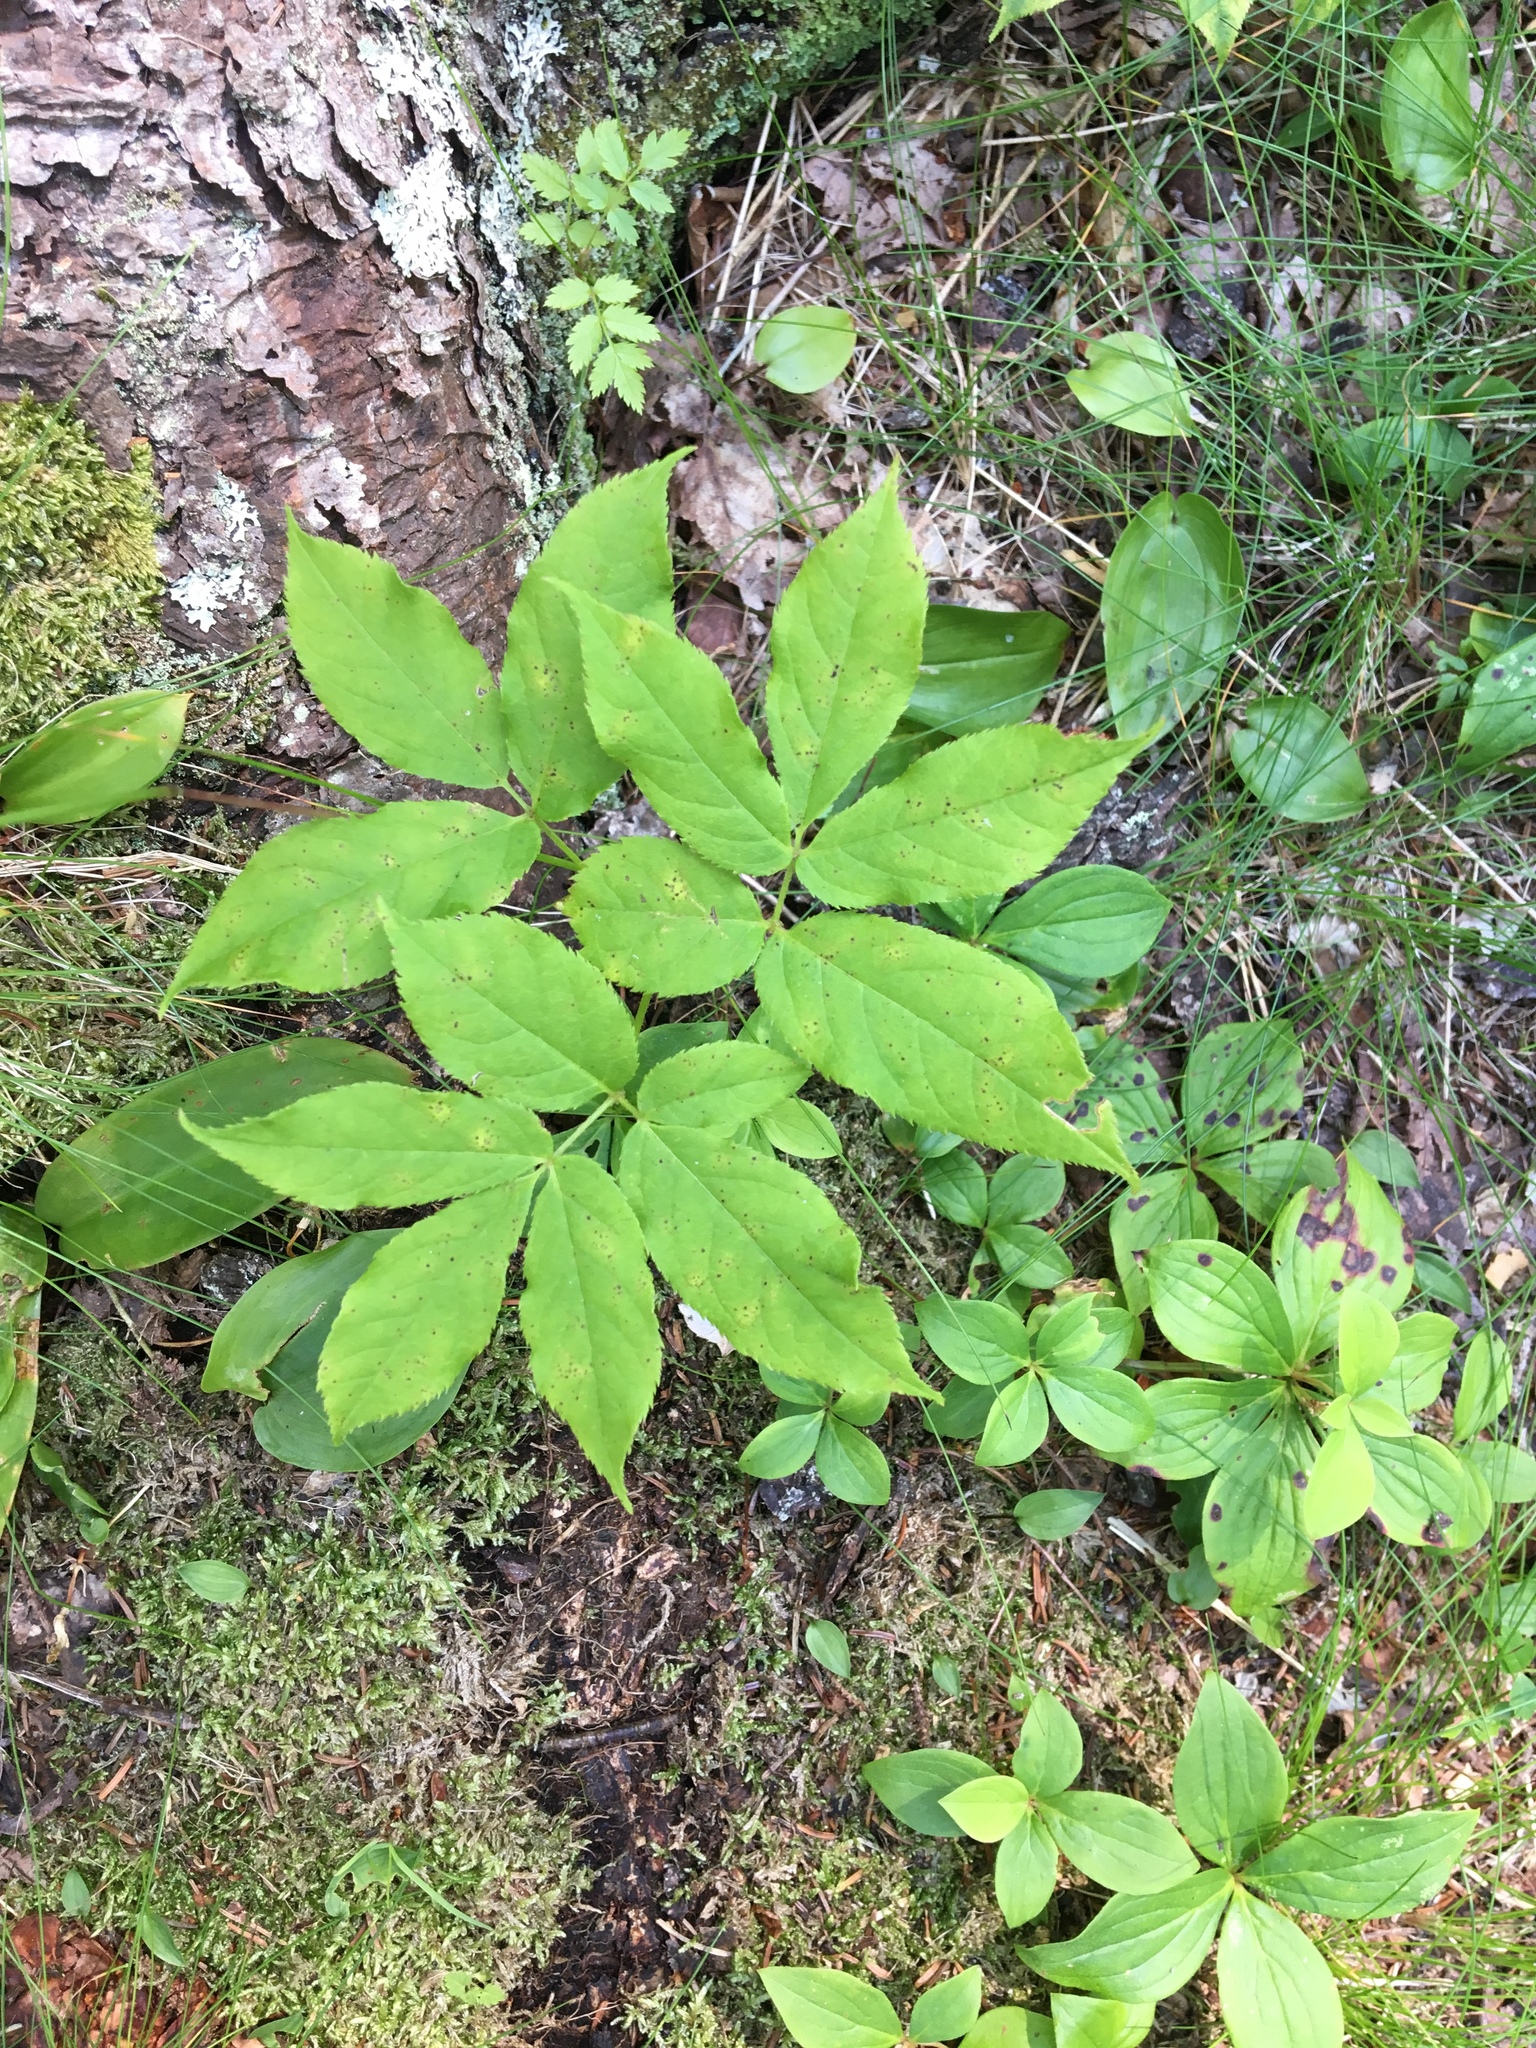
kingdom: Plantae
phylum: Tracheophyta
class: Magnoliopsida
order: Apiales
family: Araliaceae
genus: Aralia
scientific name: Aralia nudicaulis
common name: Wild sarsaparilla
